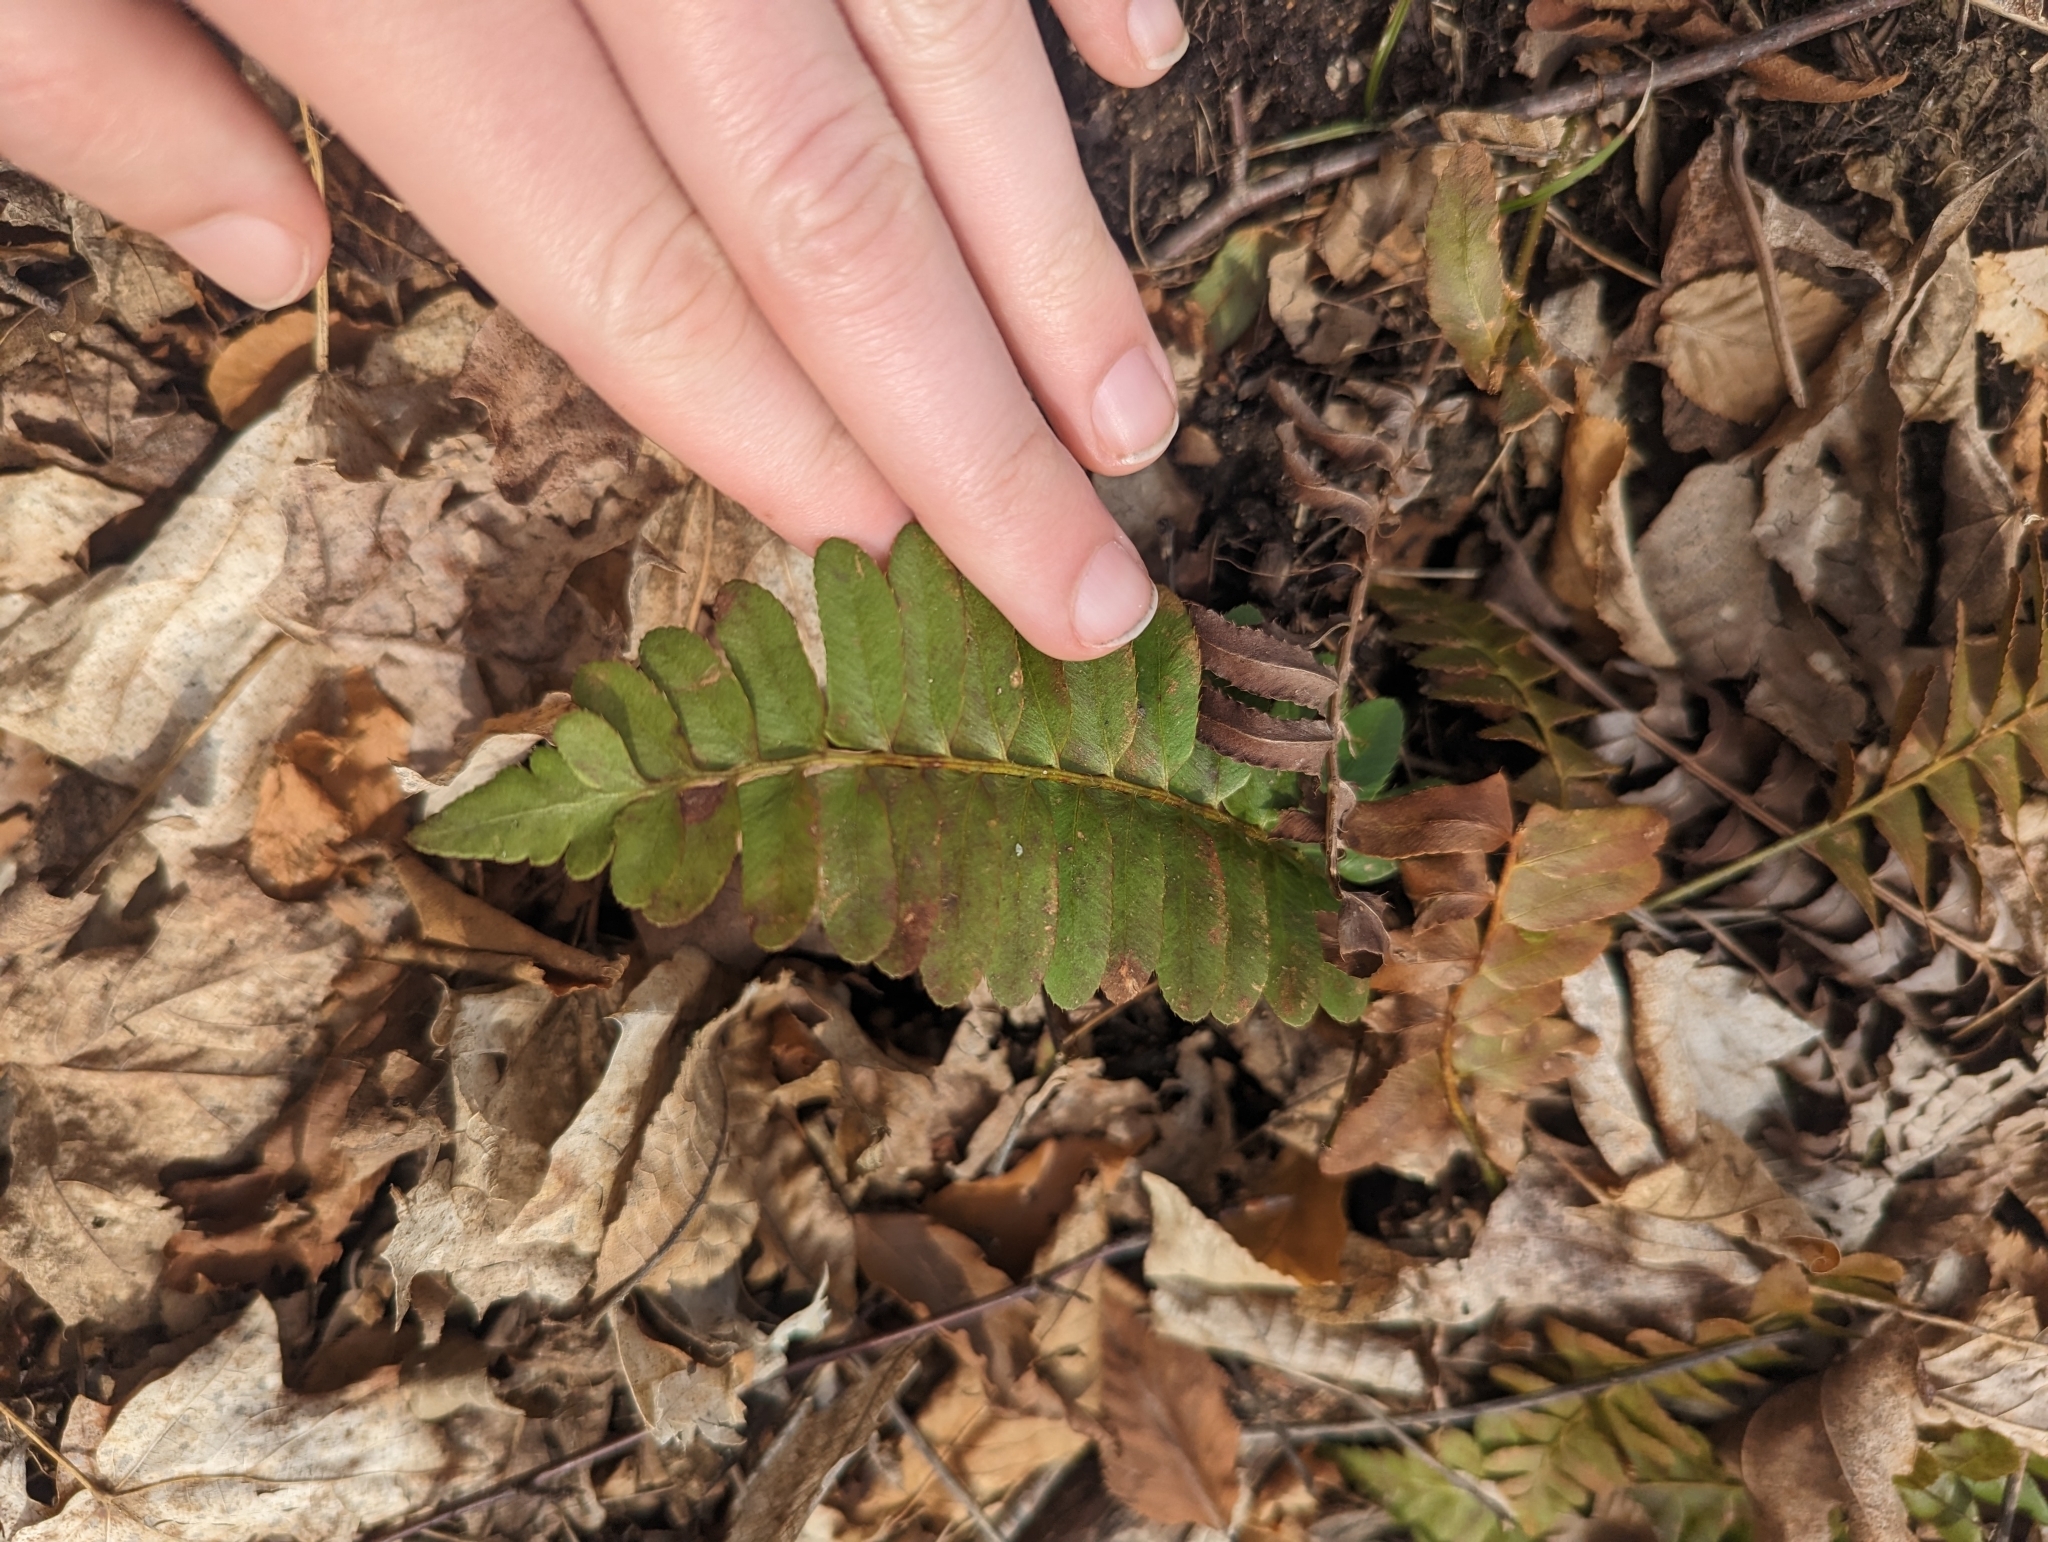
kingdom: Plantae
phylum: Tracheophyta
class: Polypodiopsida
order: Polypodiales
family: Dryopteridaceae
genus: Polystichum
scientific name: Polystichum acrostichoides
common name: Christmas fern
